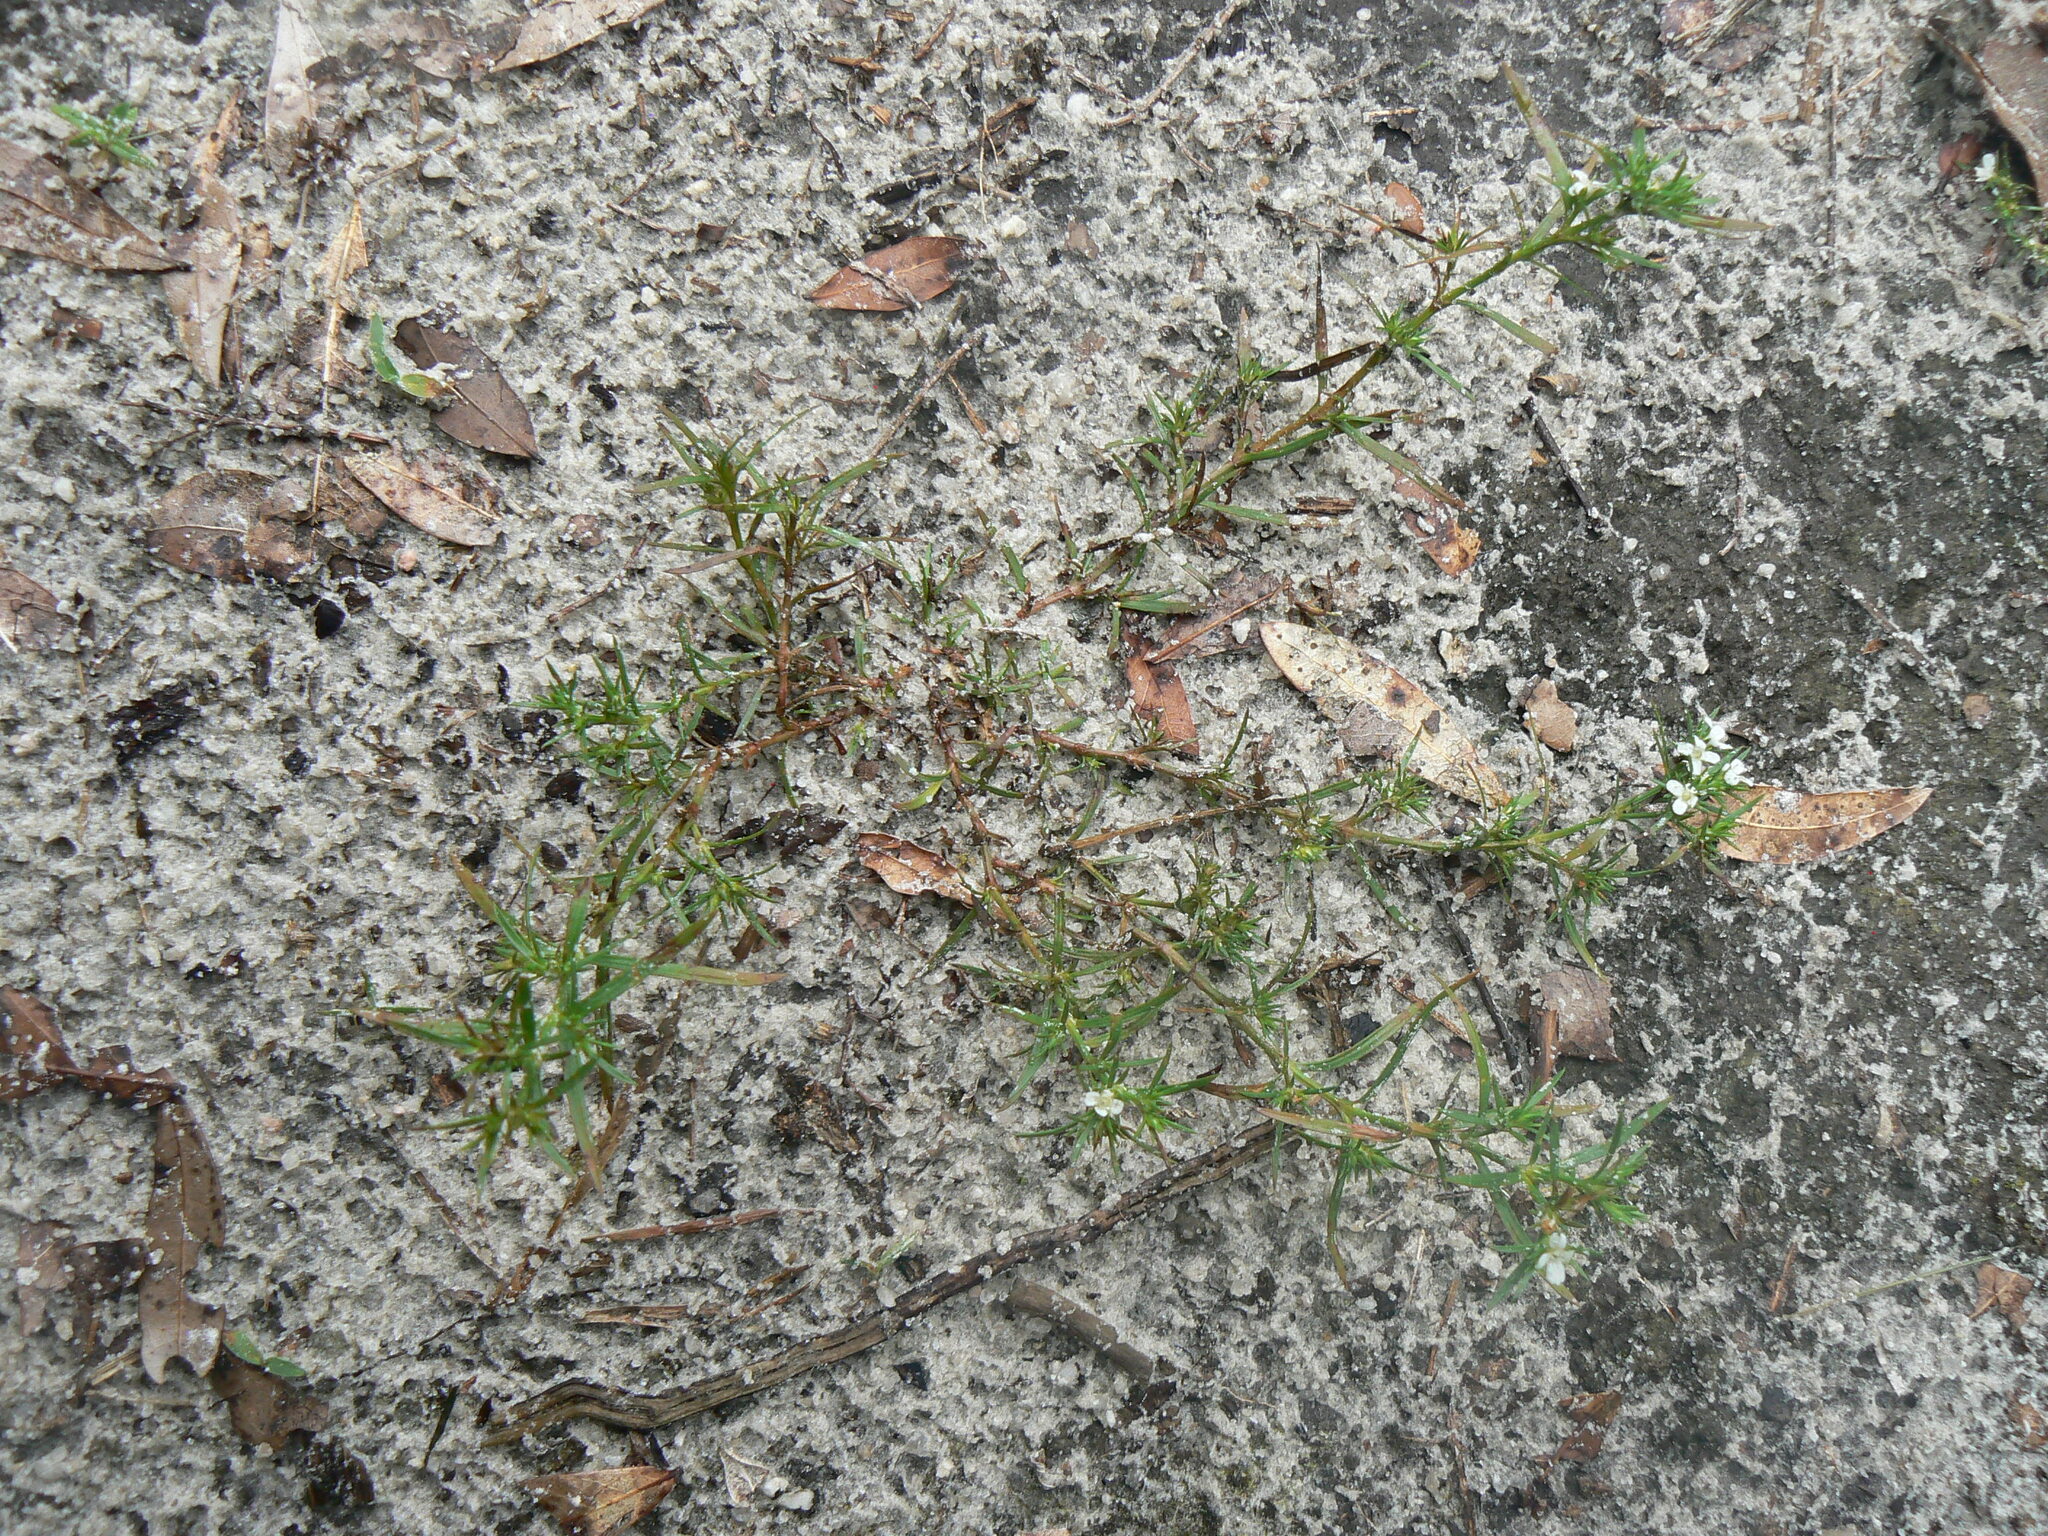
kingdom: Plantae
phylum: Tracheophyta
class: Magnoliopsida
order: Lamiales
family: Tetrachondraceae
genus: Polypremum
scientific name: Polypremum procumbens
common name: Juniper-leaf
